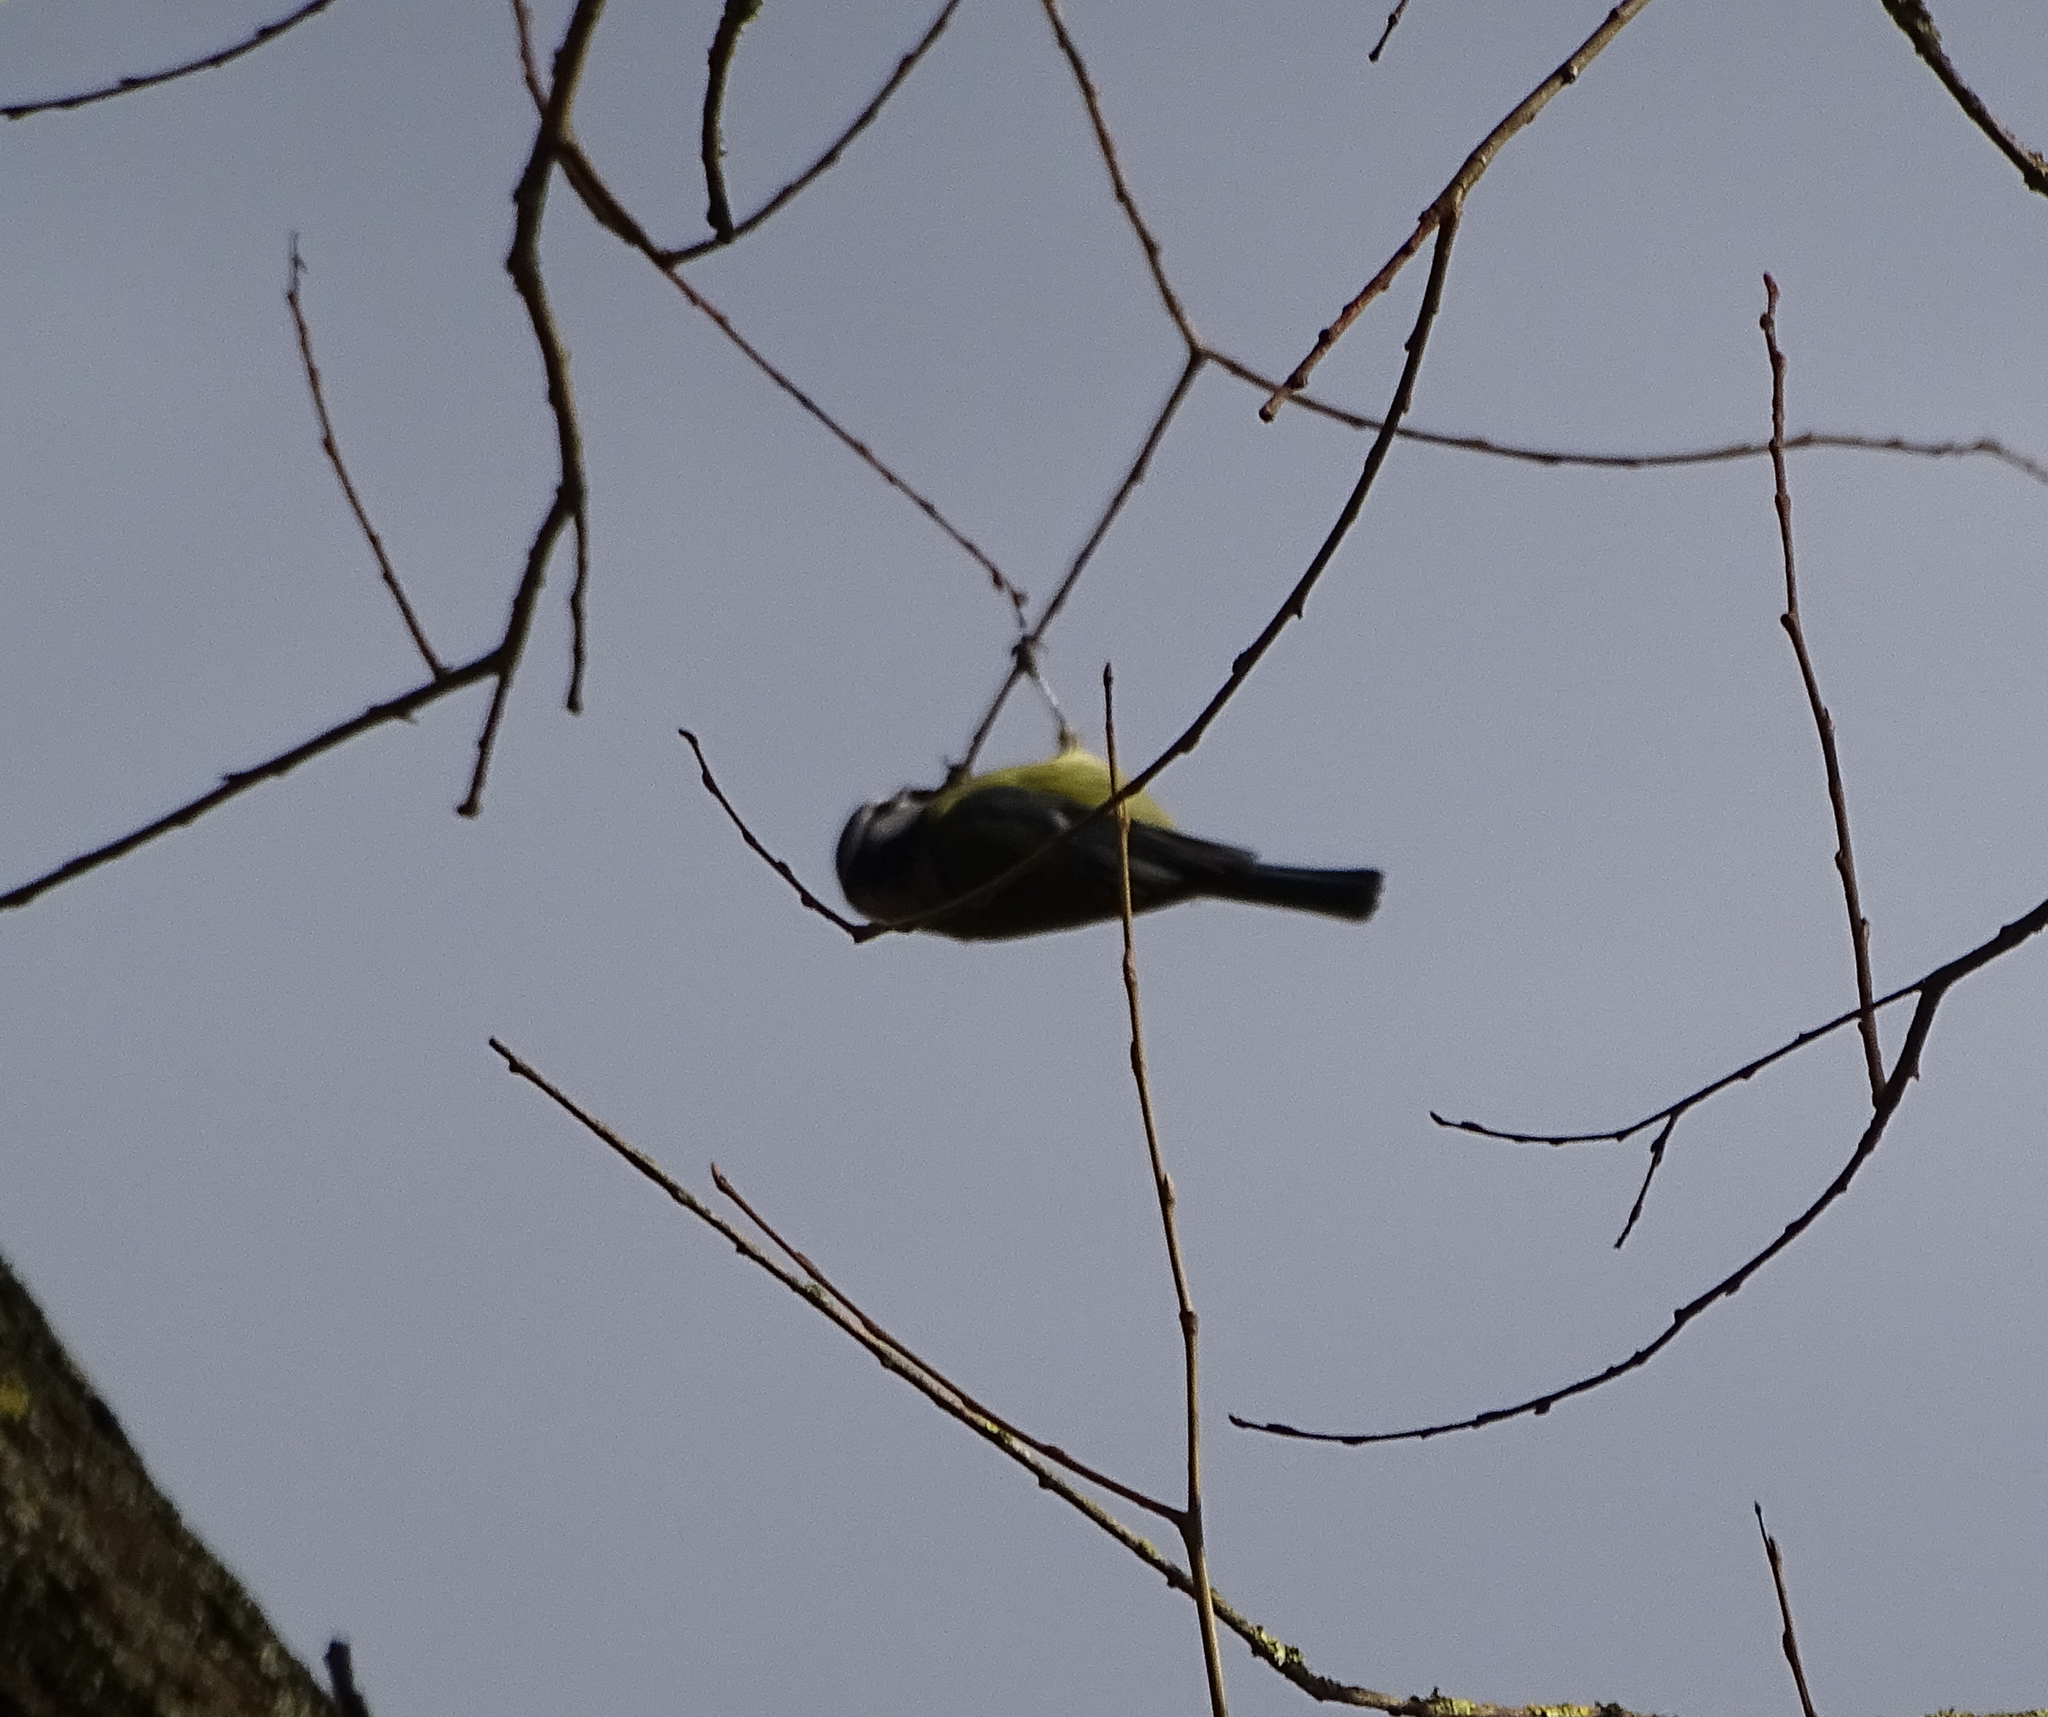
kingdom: Animalia
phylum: Chordata
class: Aves
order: Passeriformes
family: Paridae
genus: Cyanistes
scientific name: Cyanistes caeruleus
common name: Eurasian blue tit
